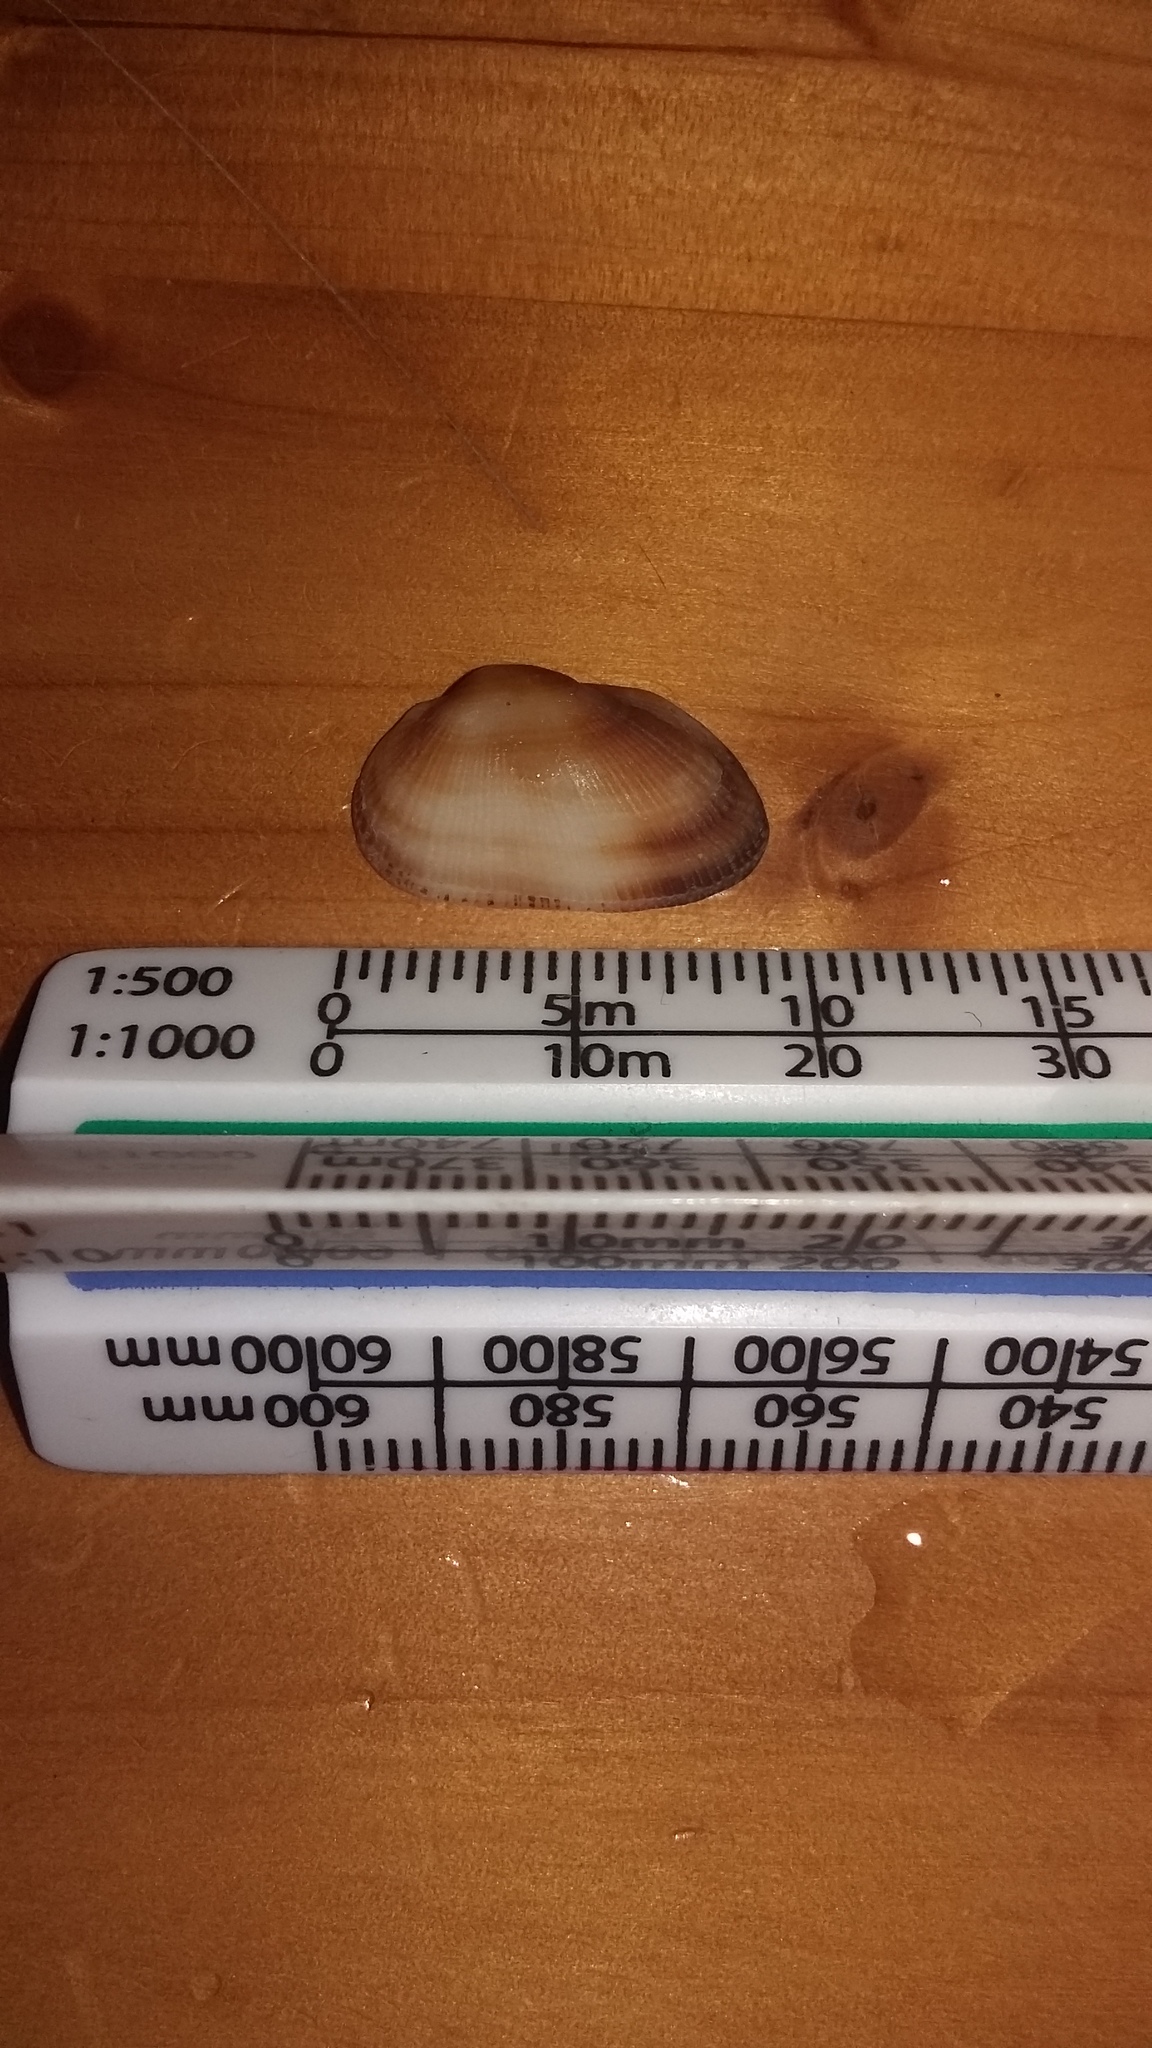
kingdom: Animalia
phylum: Mollusca
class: Bivalvia
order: Arcida
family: Arcidae
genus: Barbatia
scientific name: Barbatia novaezealandiae
